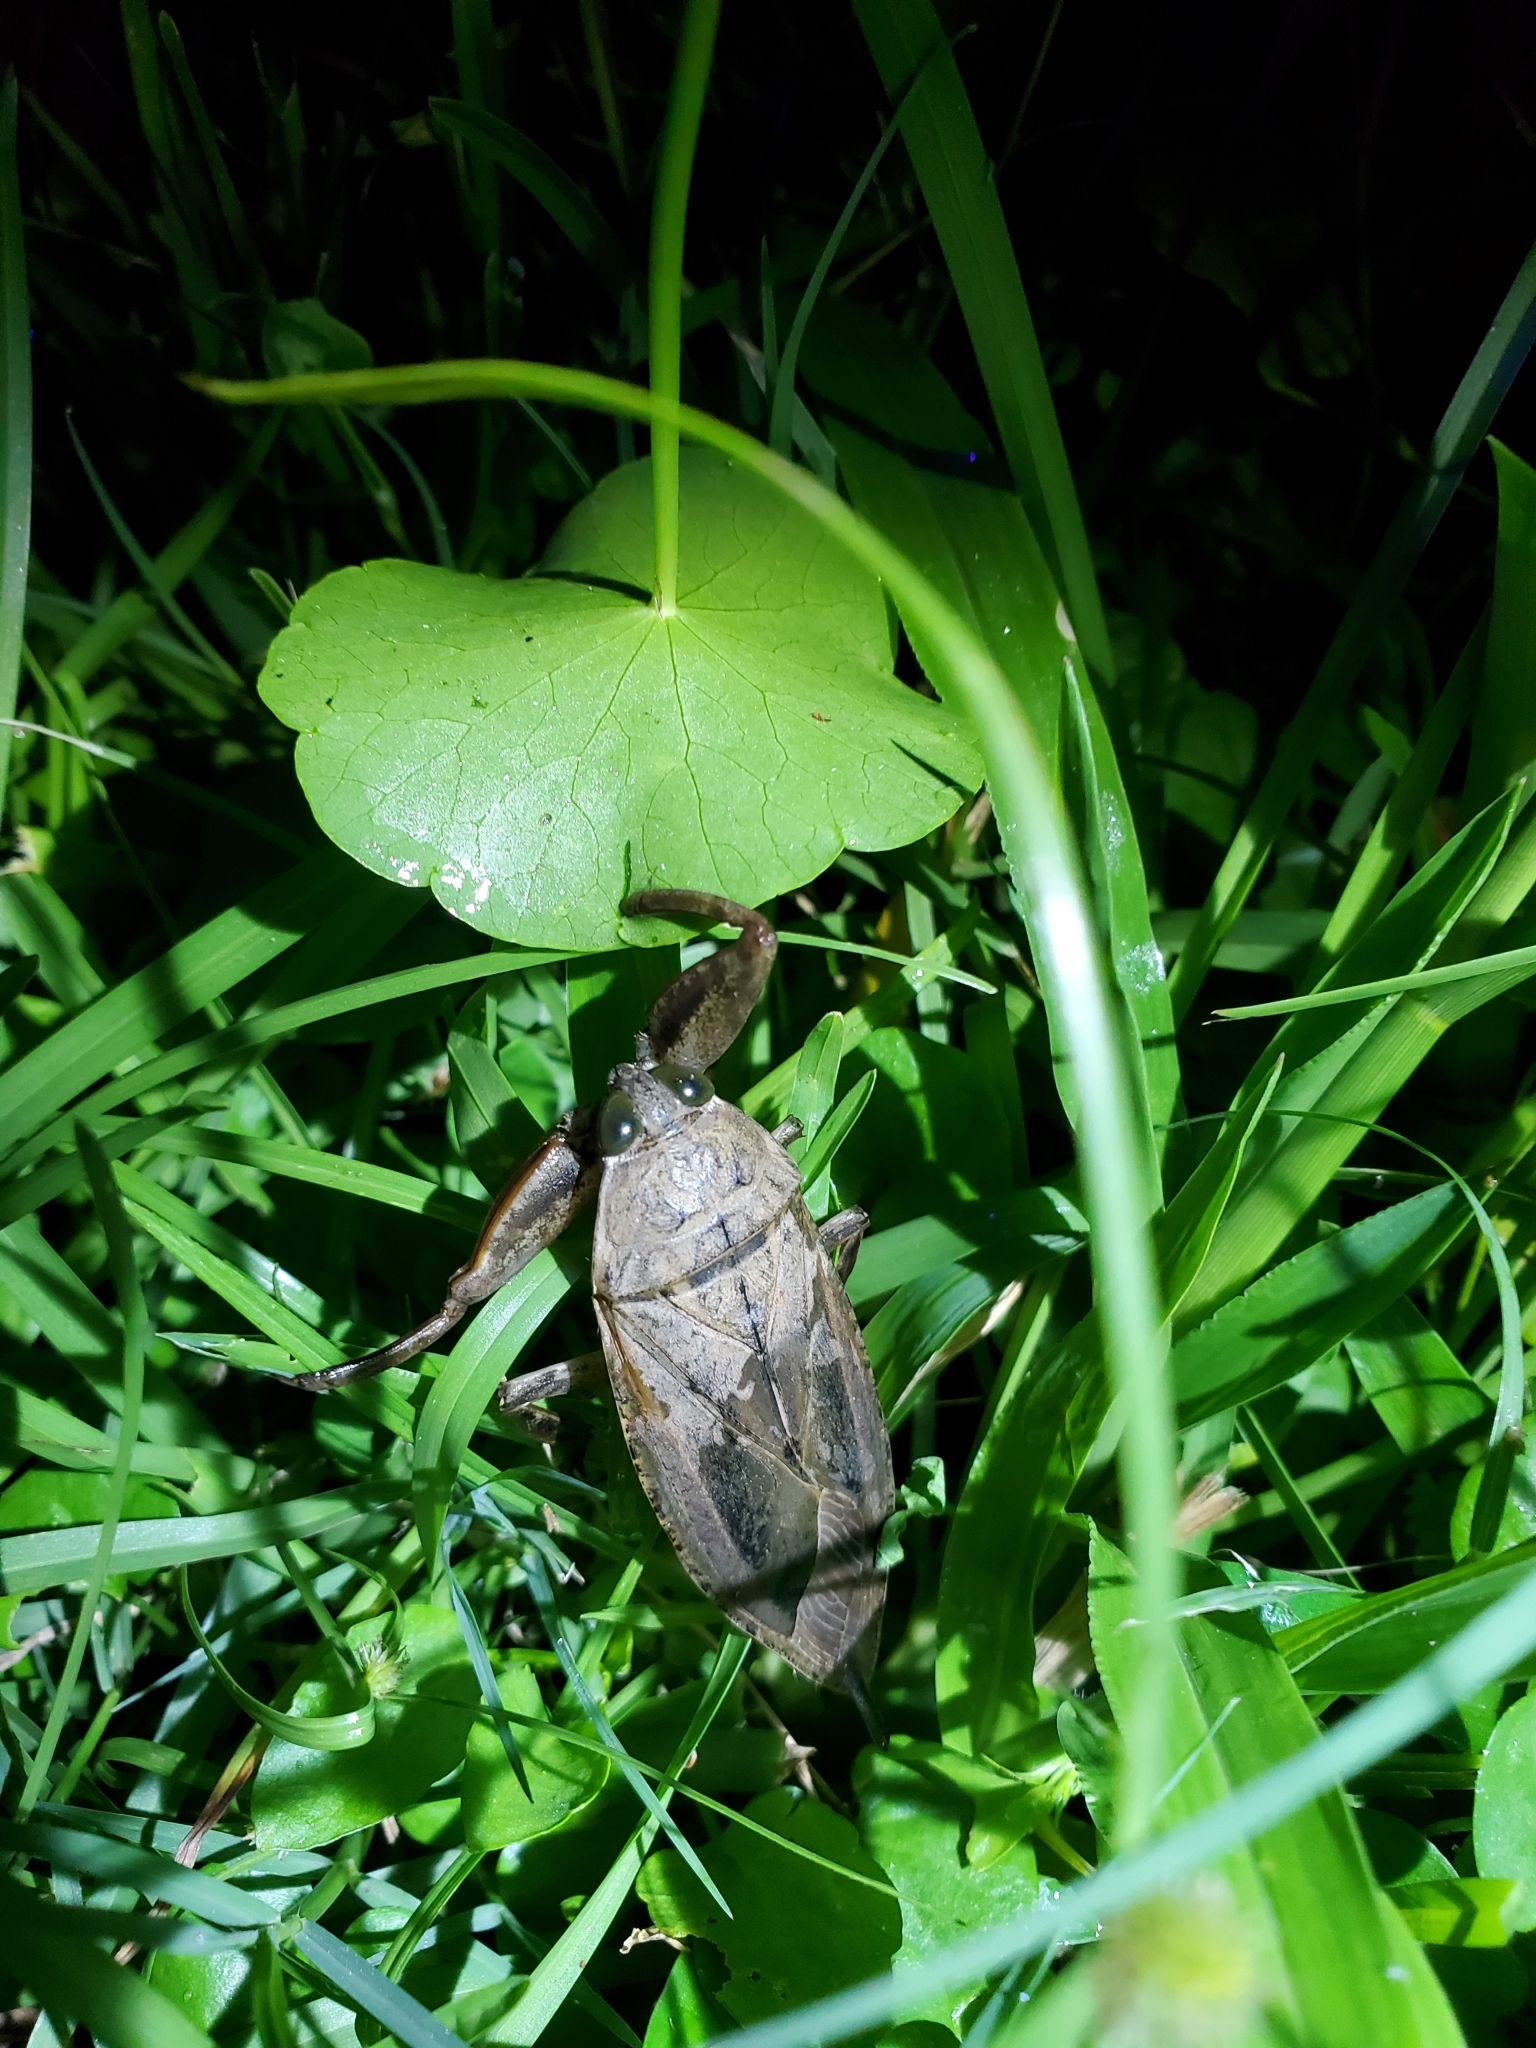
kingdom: Animalia
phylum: Arthropoda
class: Insecta
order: Hemiptera
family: Belostomatidae
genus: Lethocerus
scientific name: Lethocerus uhleri
